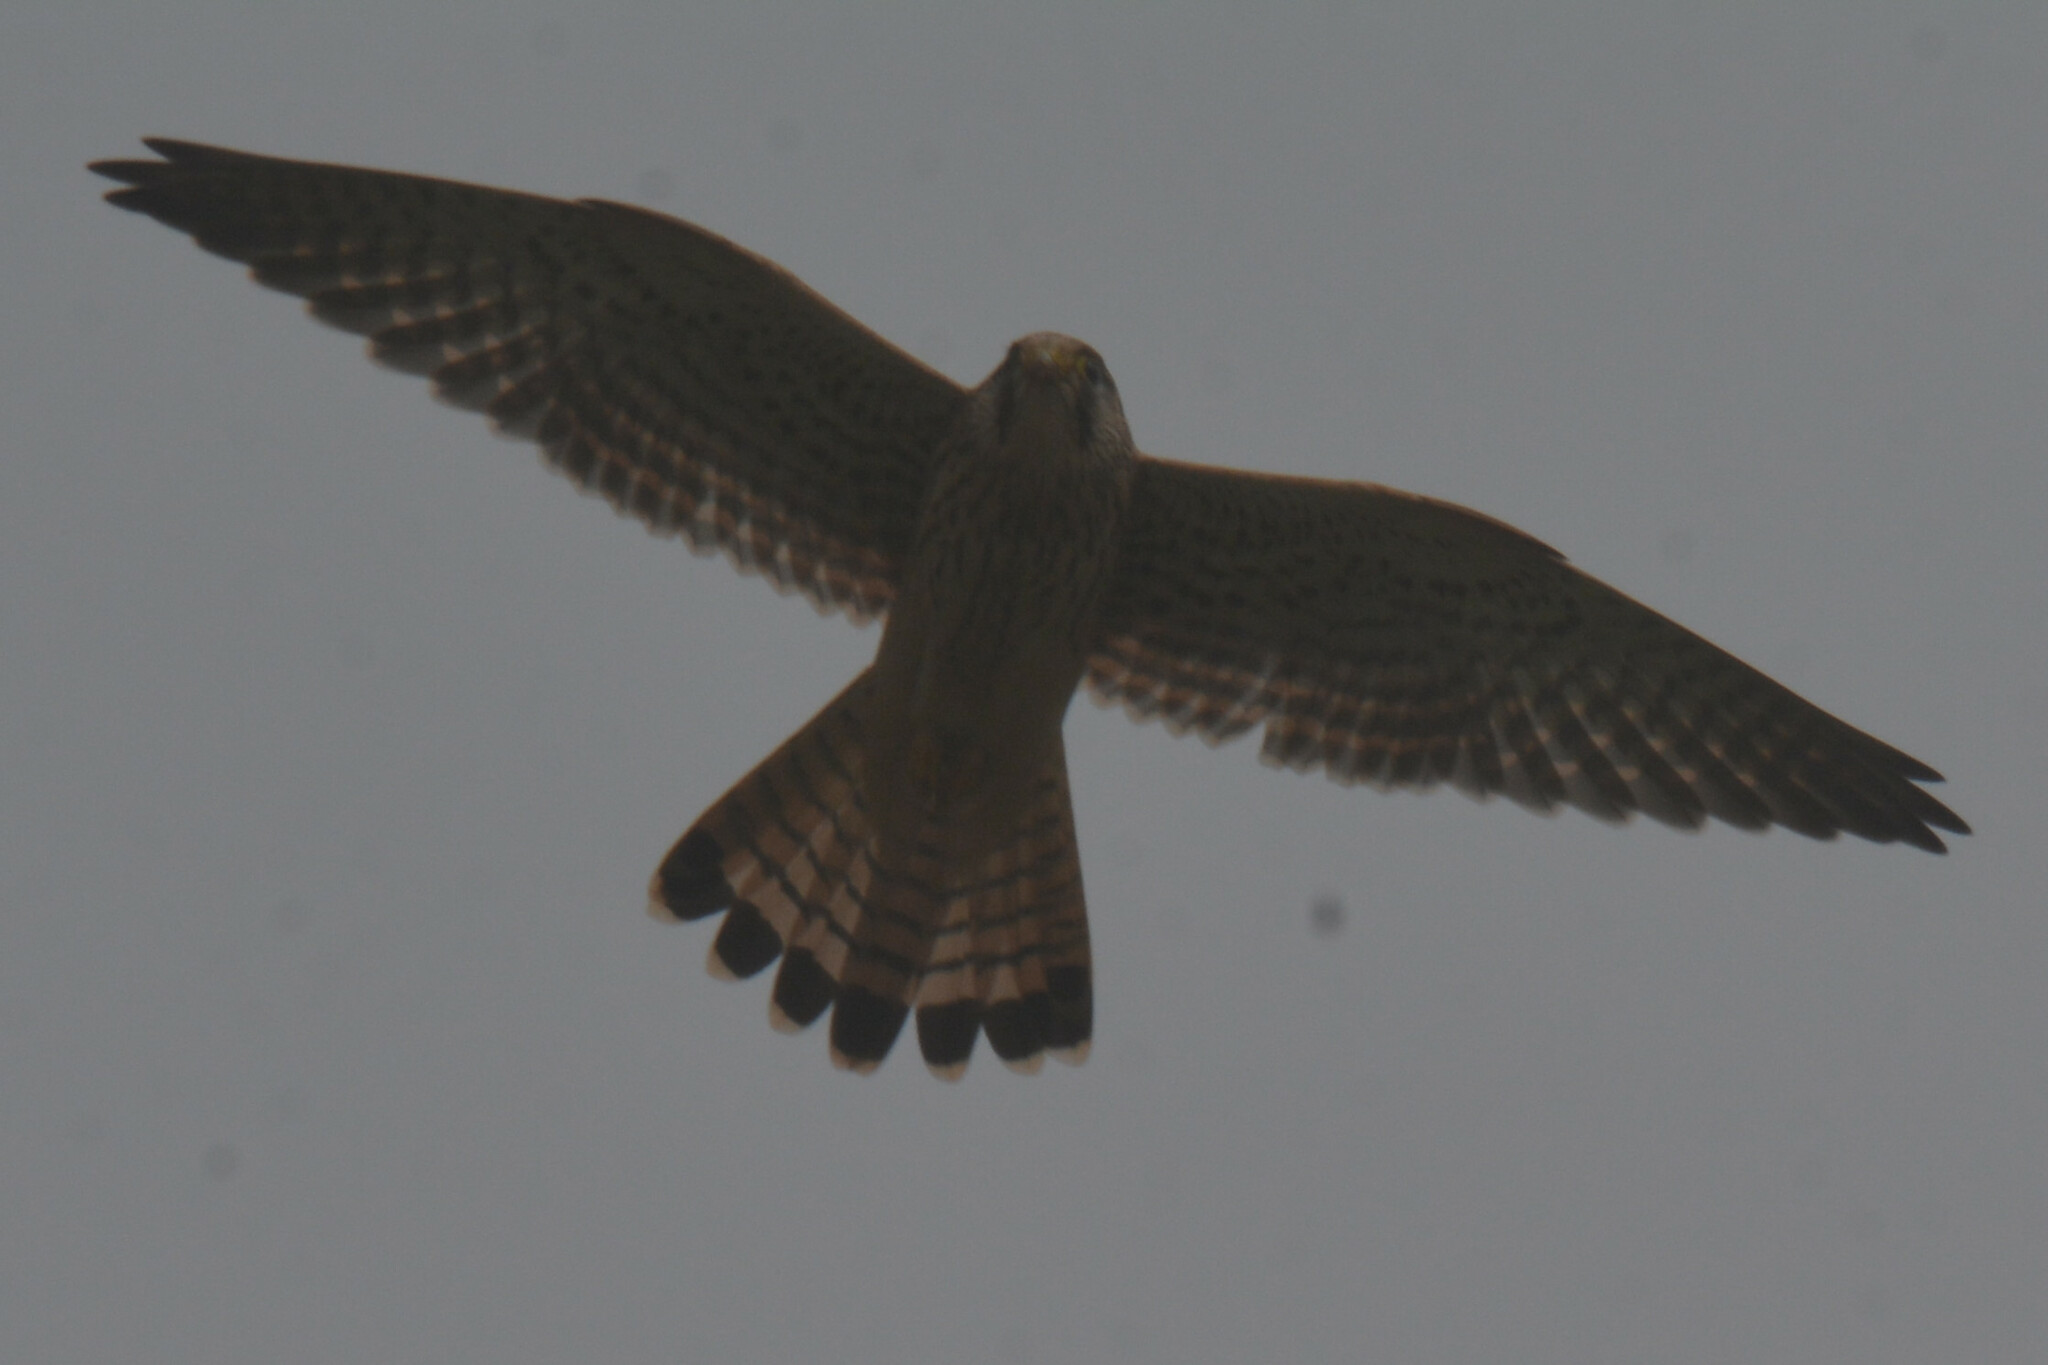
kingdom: Animalia
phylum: Chordata
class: Aves
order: Falconiformes
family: Falconidae
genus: Falco
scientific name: Falco tinnunculus
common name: Common kestrel
